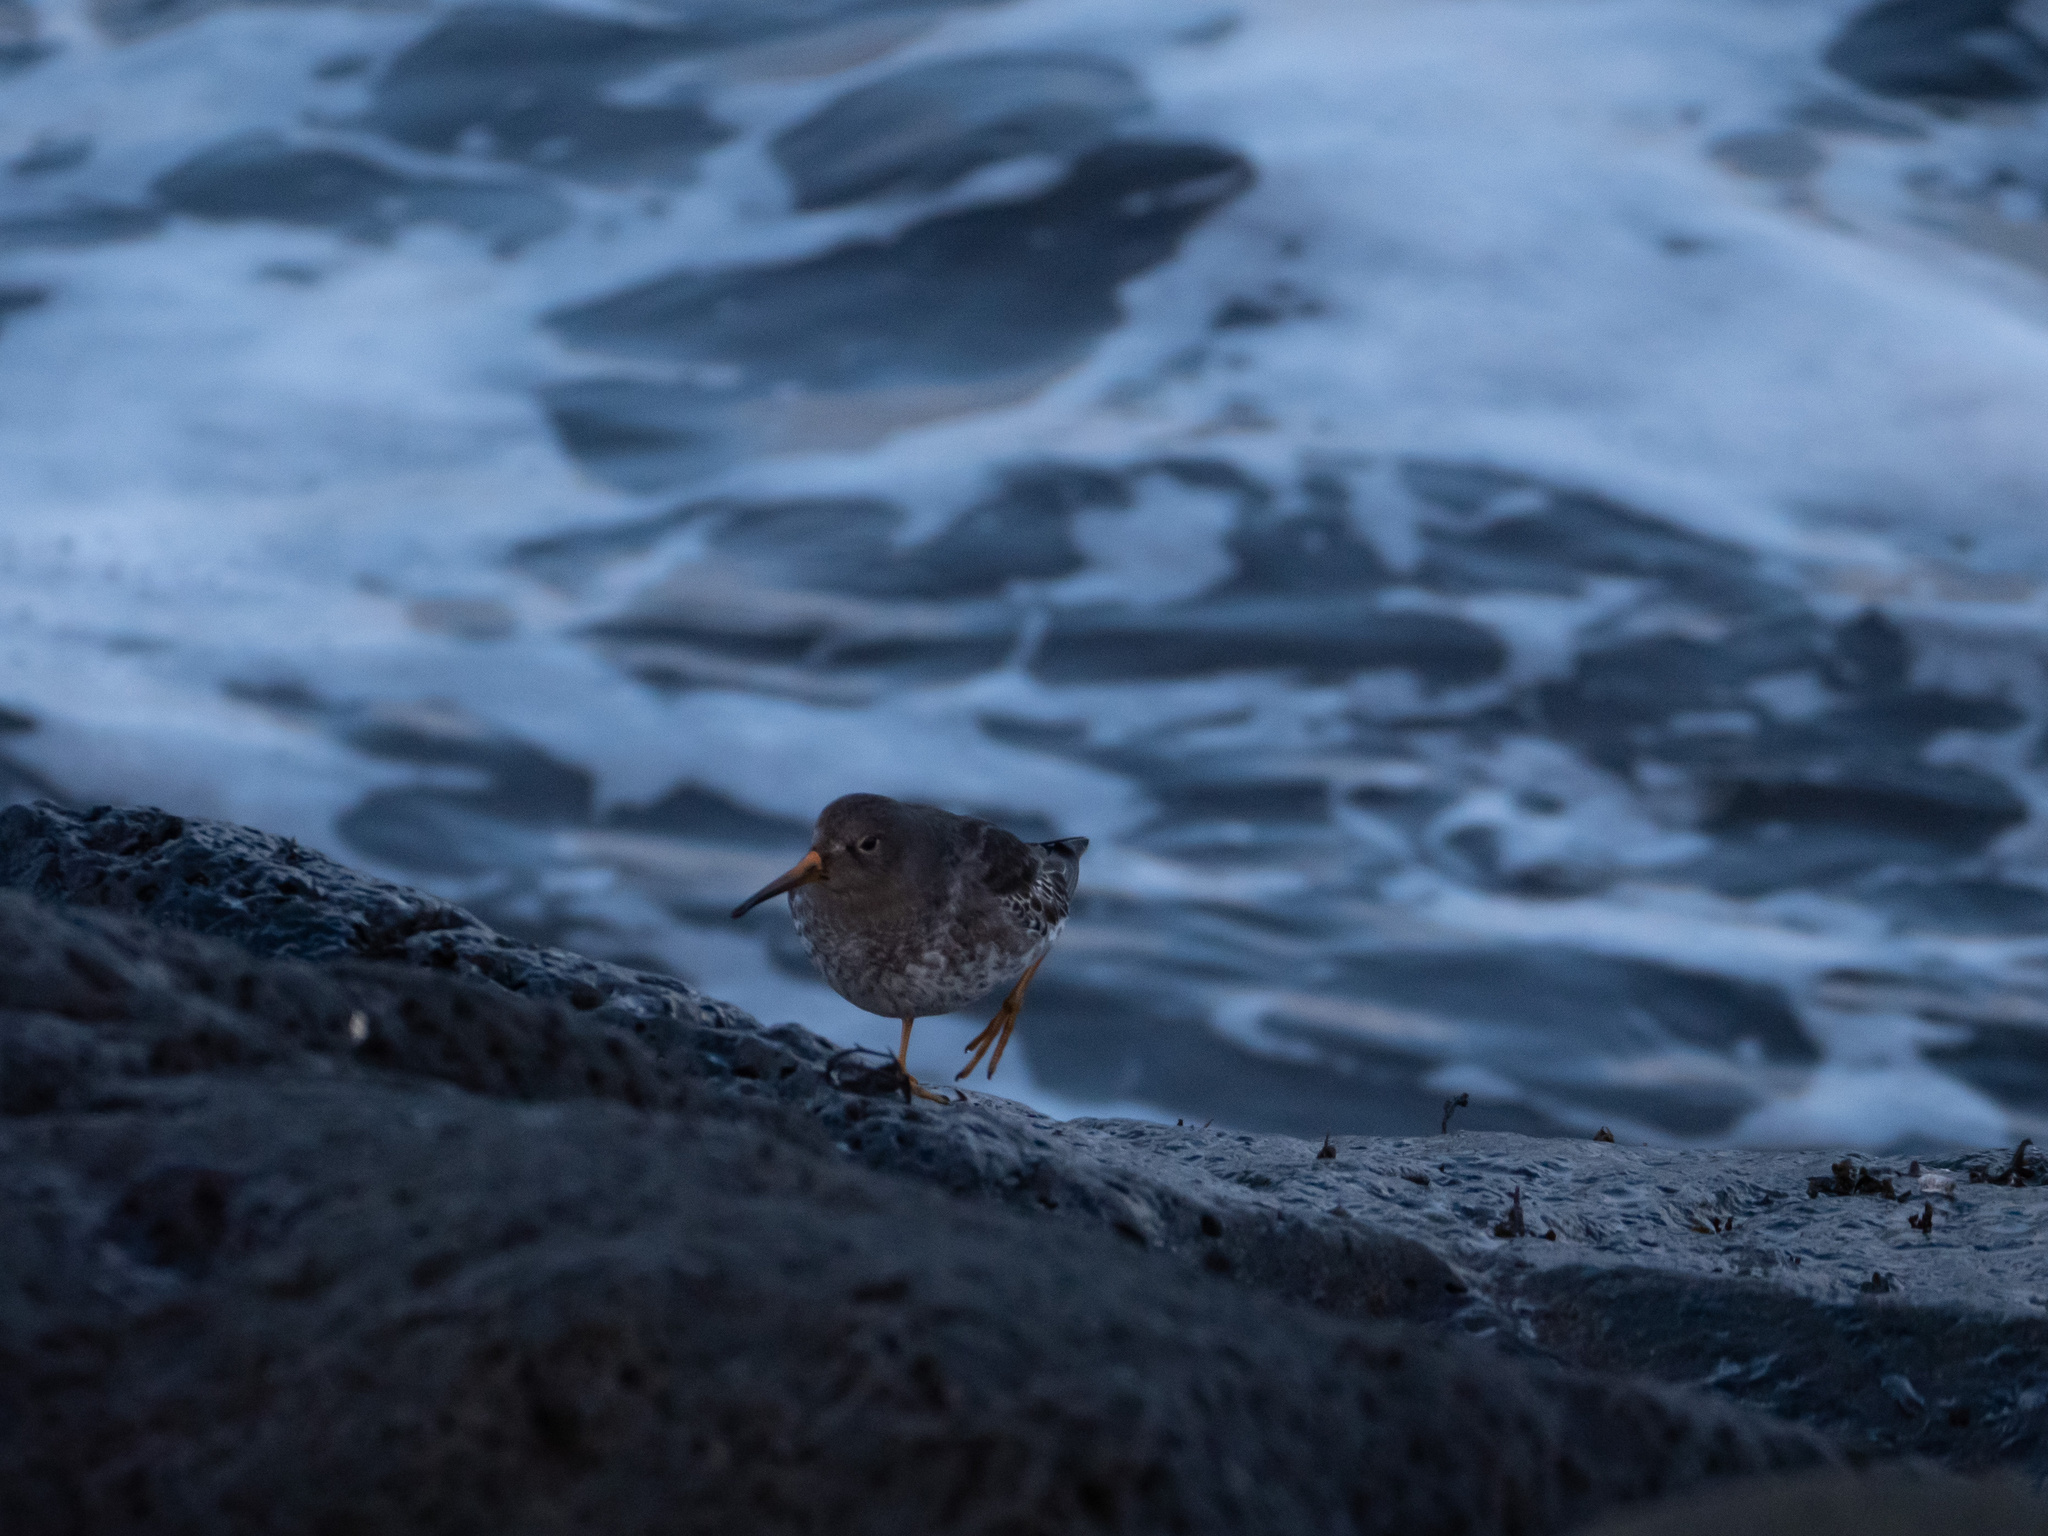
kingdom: Animalia
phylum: Chordata
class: Aves
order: Charadriiformes
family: Scolopacidae
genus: Calidris
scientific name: Calidris maritima
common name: Purple sandpiper
